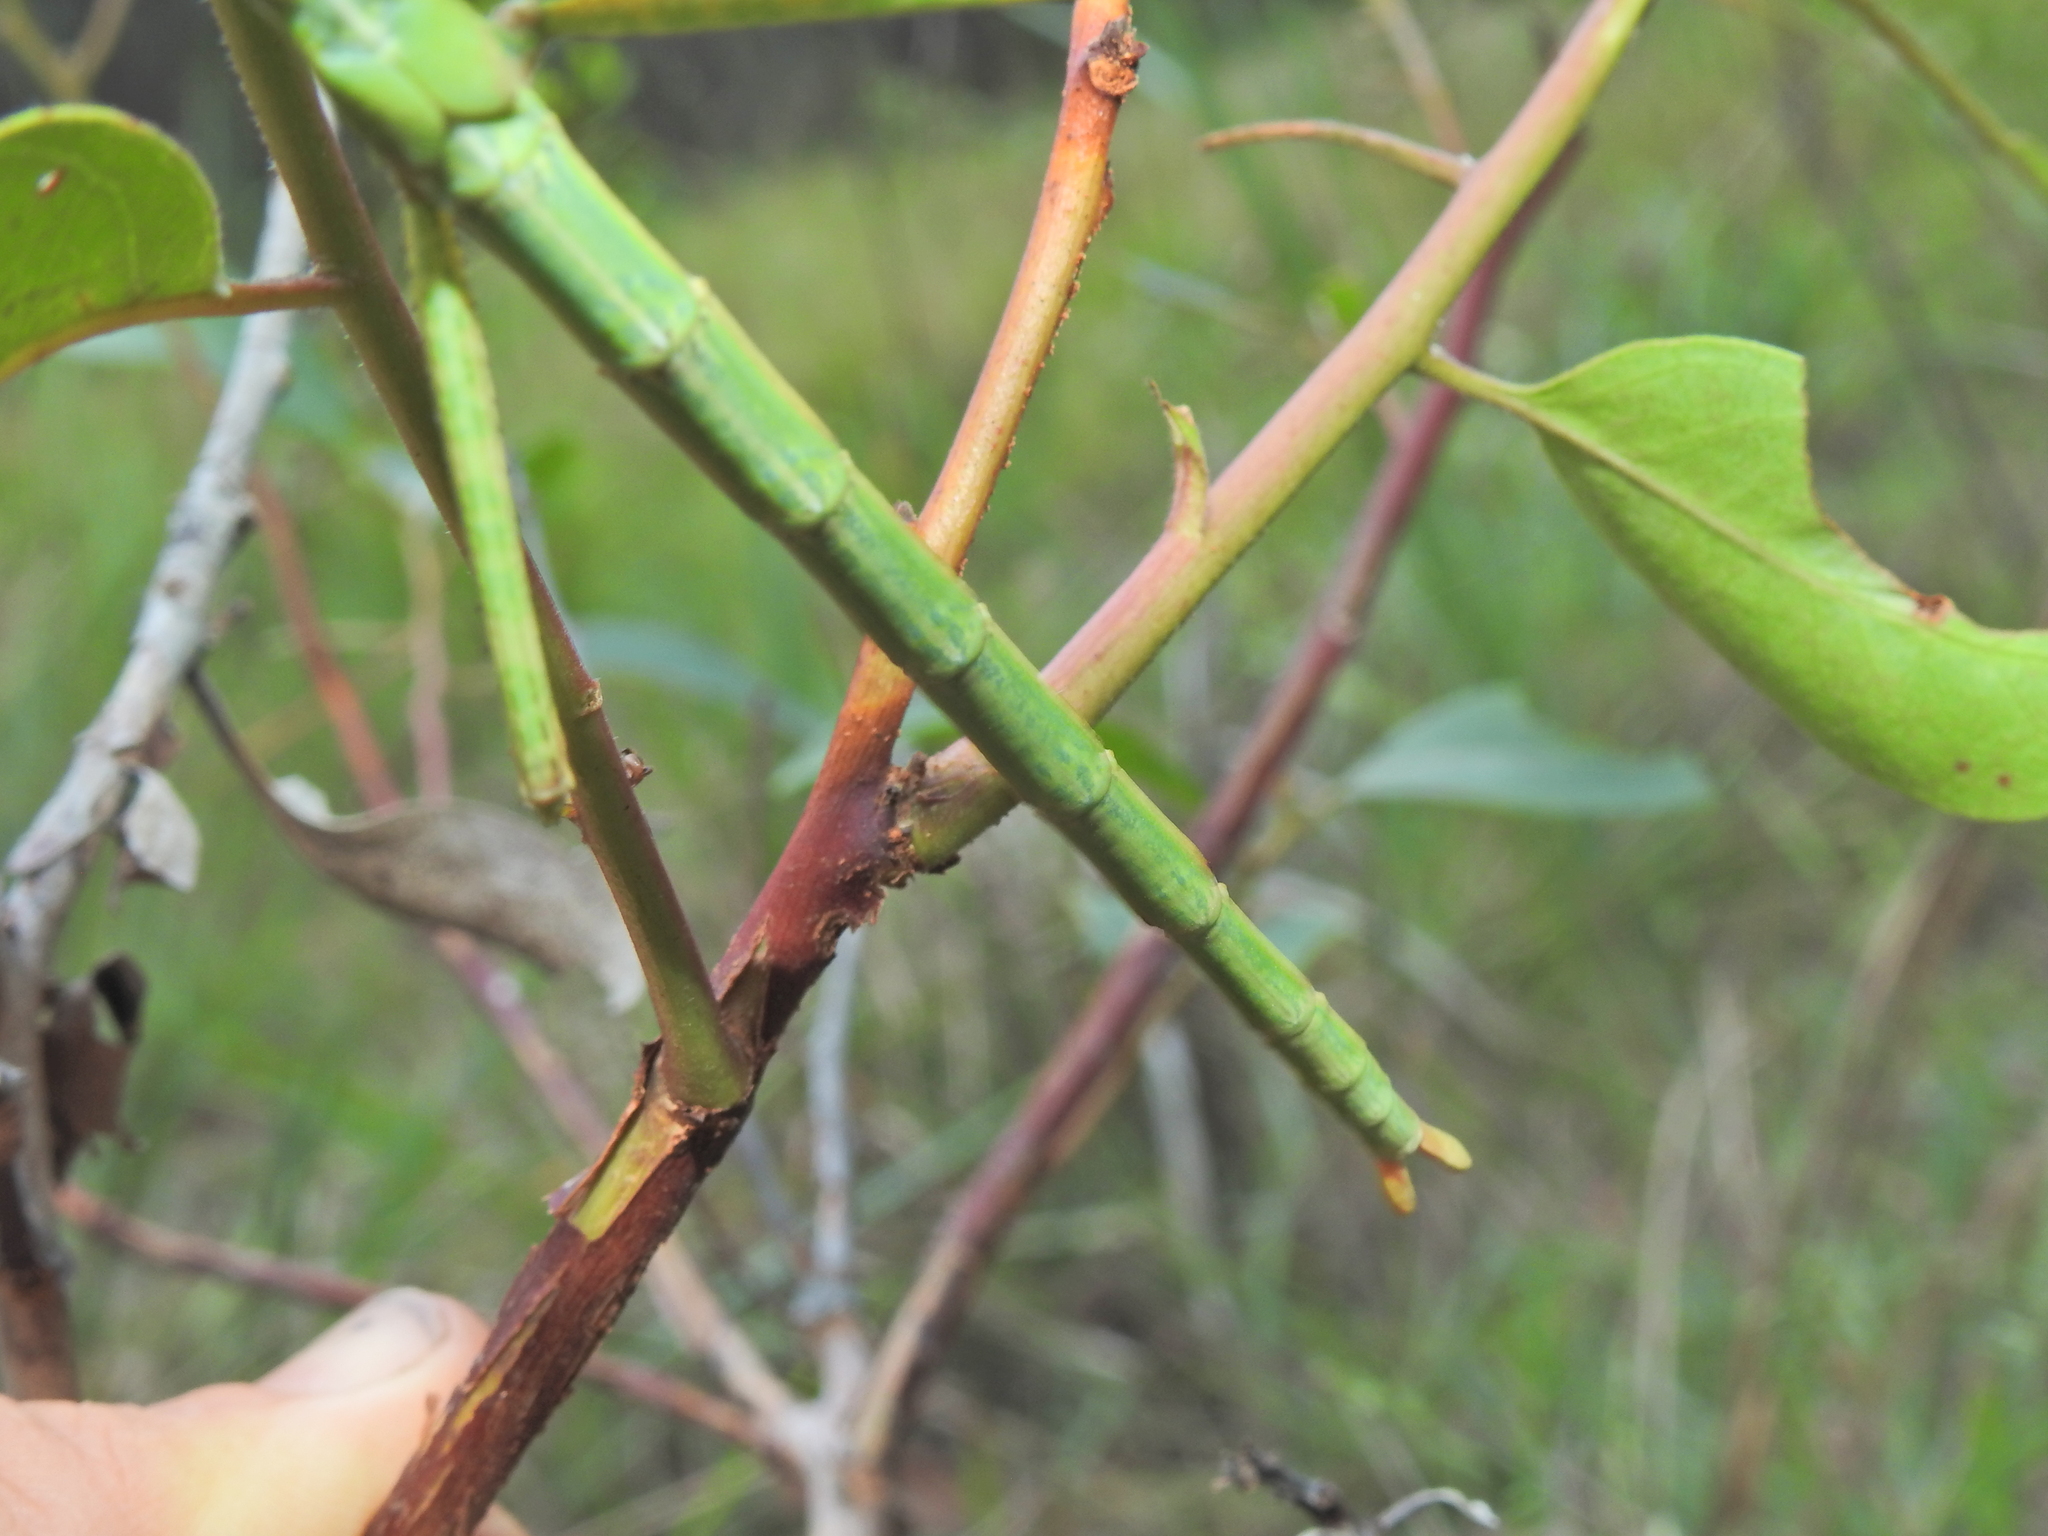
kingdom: Animalia
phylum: Arthropoda
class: Insecta
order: Phasmida
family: Phasmatidae
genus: Anchiale
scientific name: Anchiale austrotessulata
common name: Tessellated stick-insect
